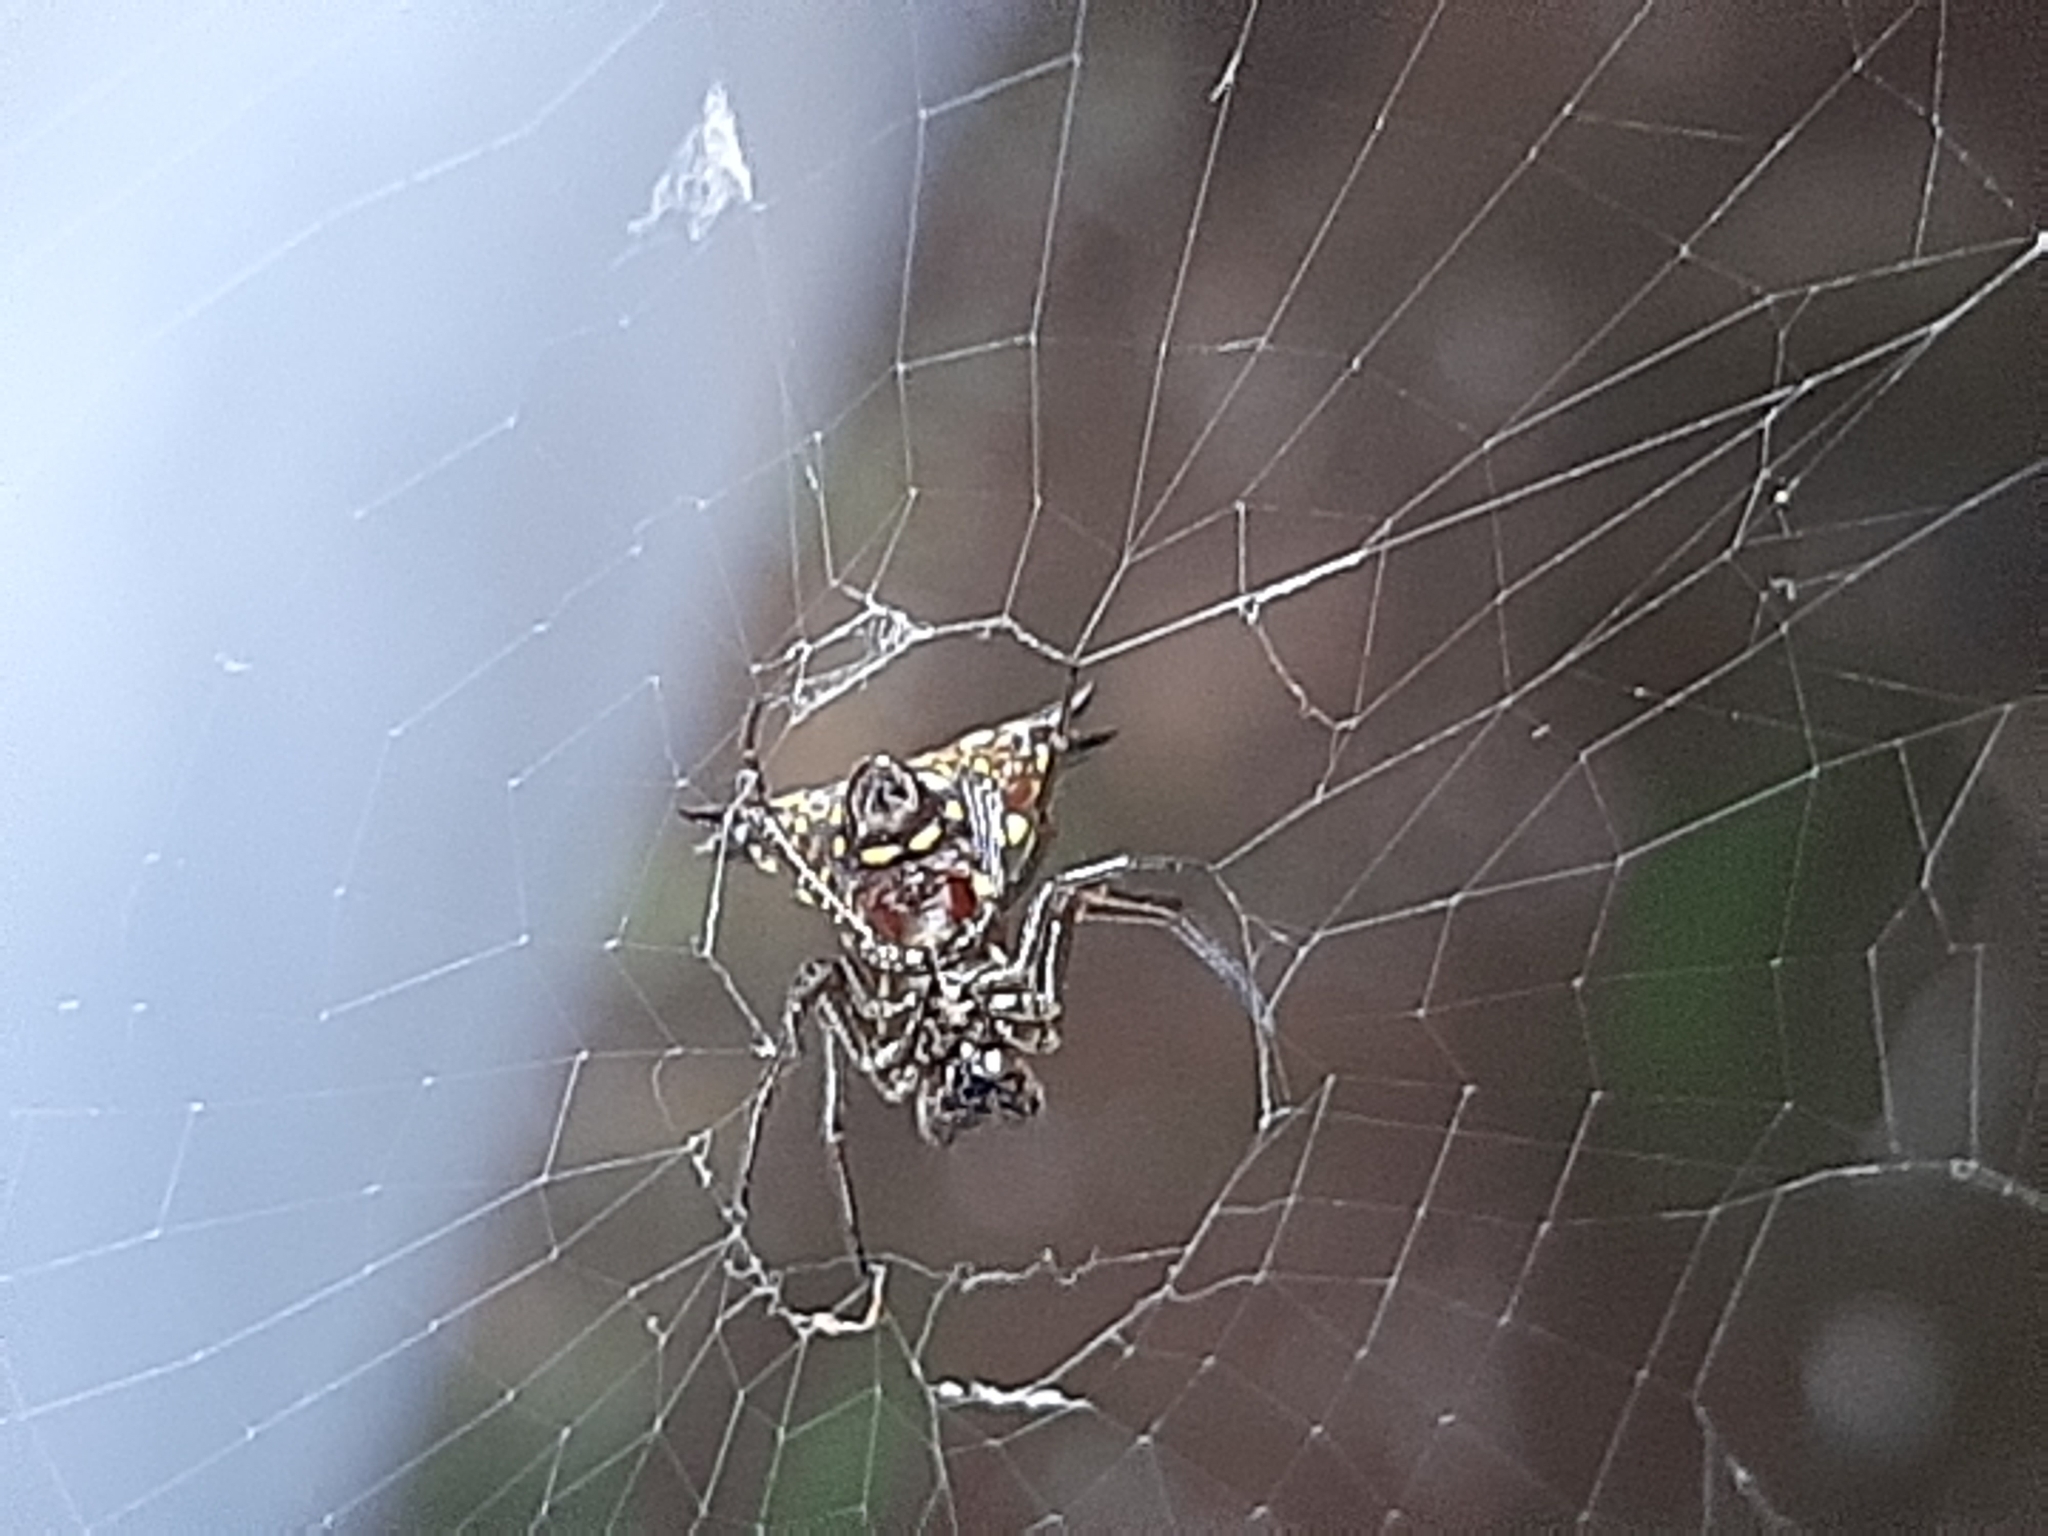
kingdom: Animalia
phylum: Arthropoda
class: Arachnida
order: Araneae
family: Araneidae
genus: Micrathena
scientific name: Micrathena lucasi
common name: Orb weavers
